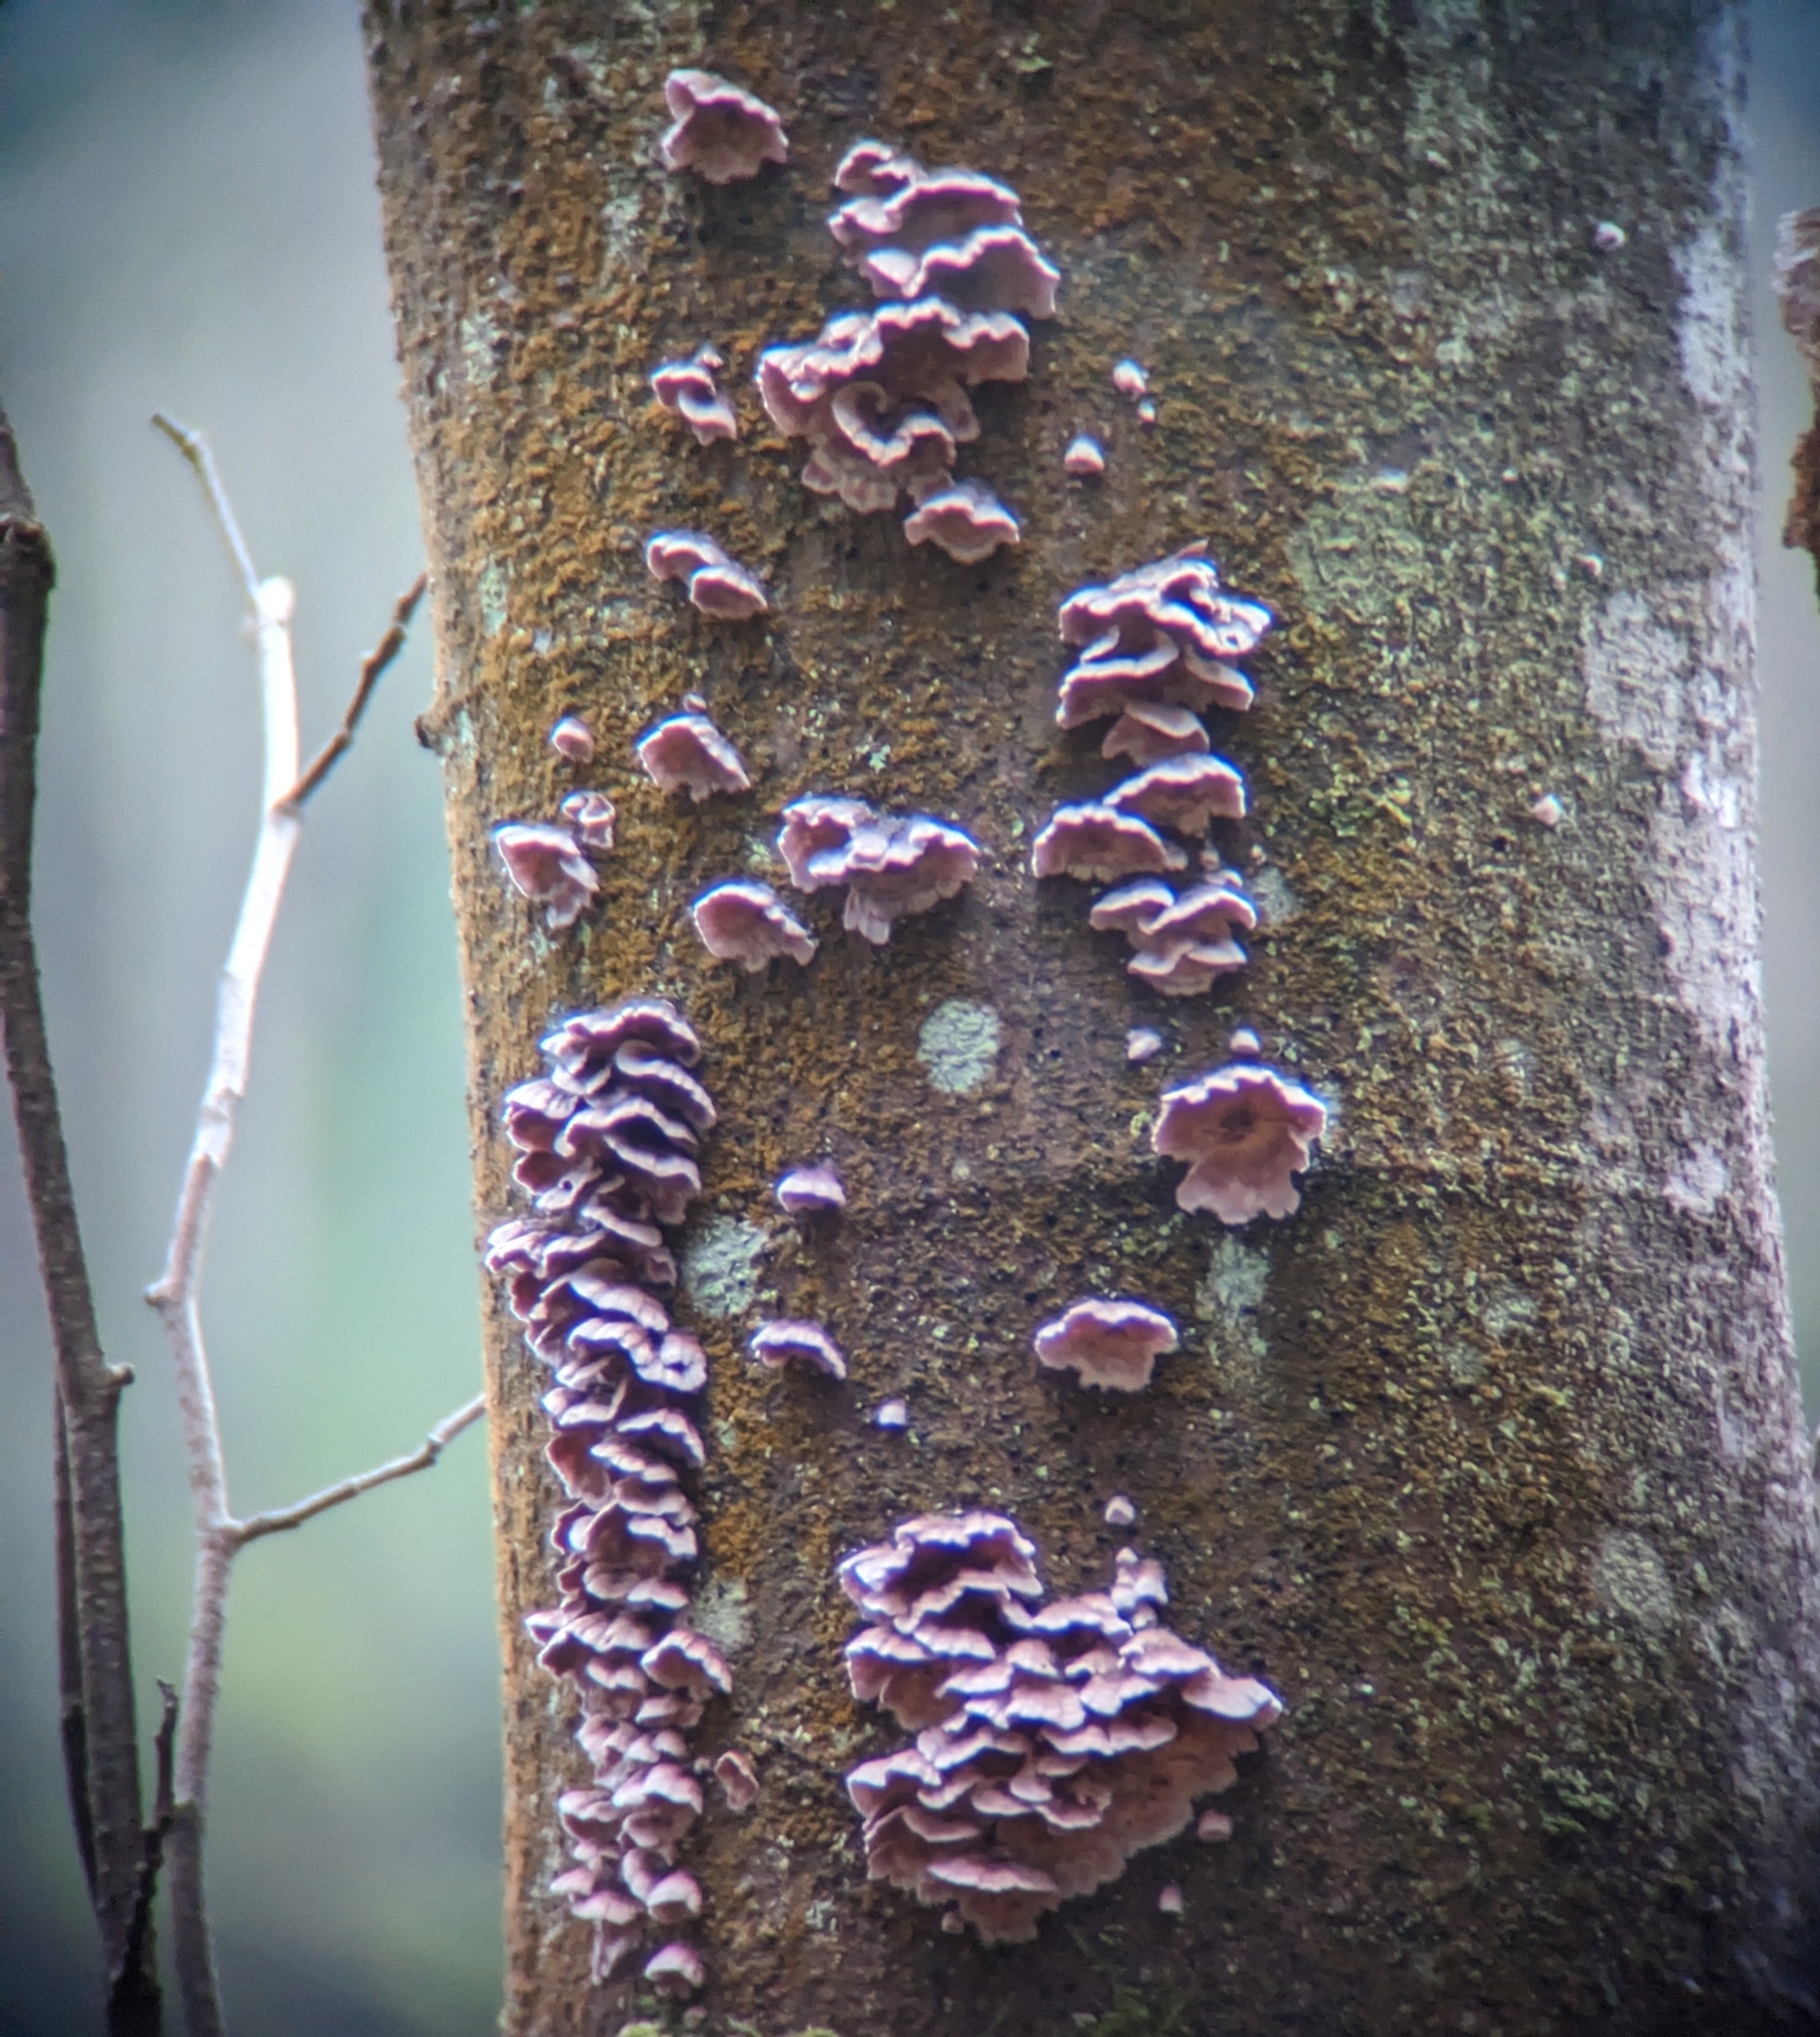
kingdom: Fungi
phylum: Basidiomycota
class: Agaricomycetes
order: Agaricales
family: Cyphellaceae
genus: Chondrostereum
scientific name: Chondrostereum purpureum
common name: Silver leaf disease
